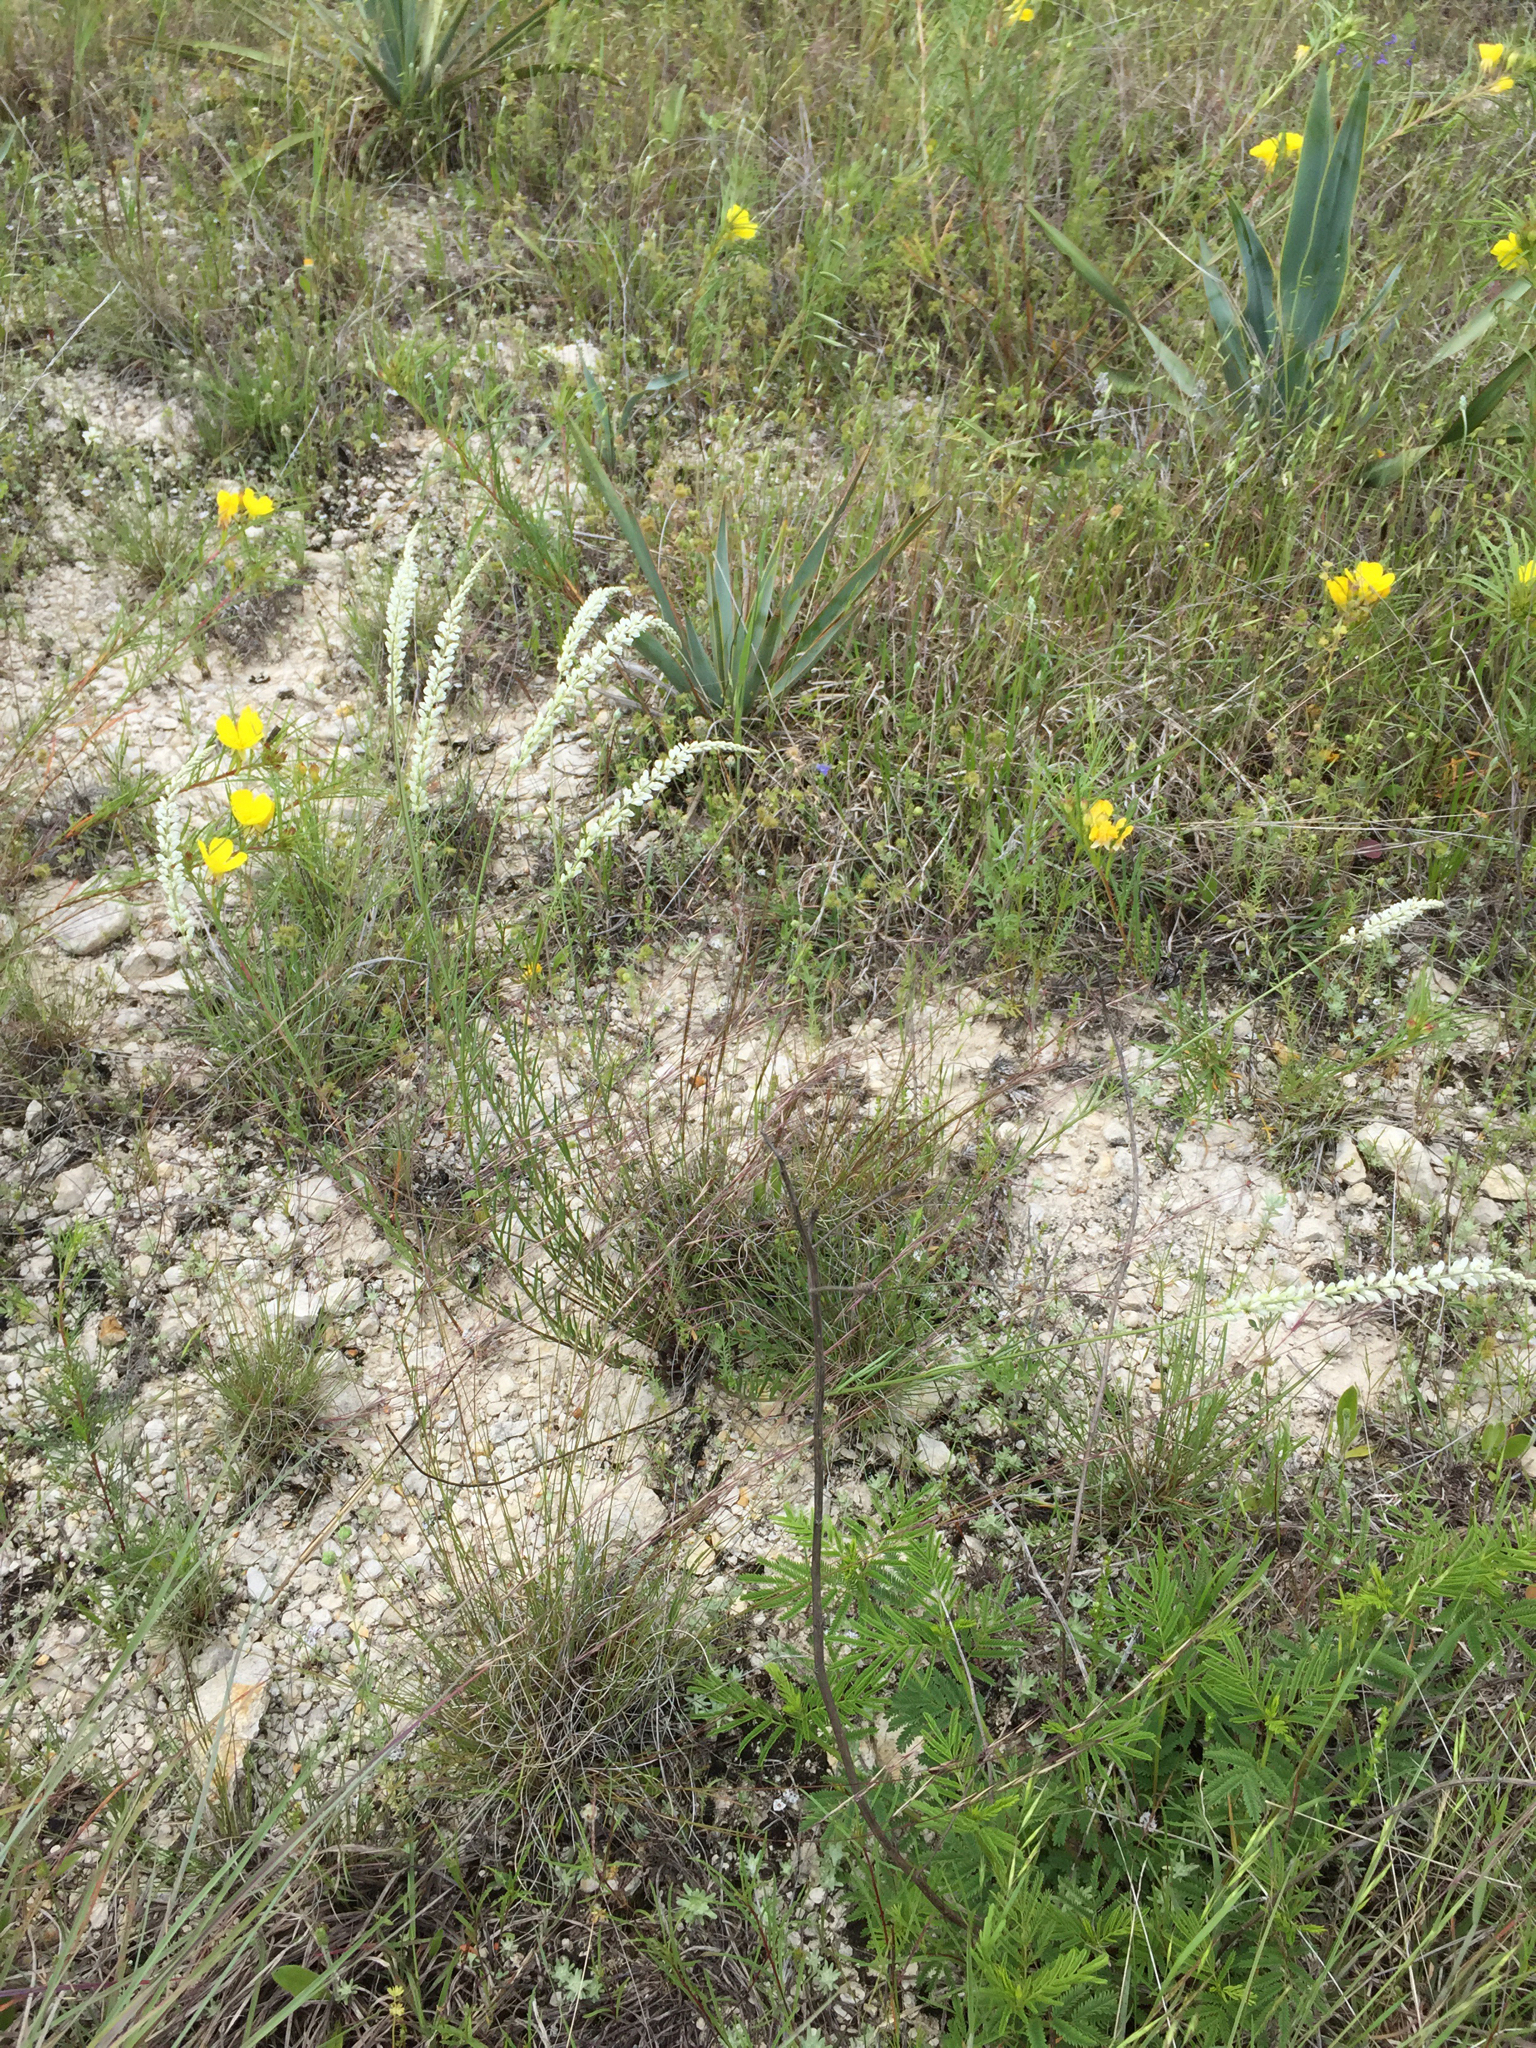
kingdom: Plantae
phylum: Tracheophyta
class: Magnoliopsida
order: Fabales
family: Polygalaceae
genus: Polygala
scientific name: Polygala alba
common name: White milkwort
